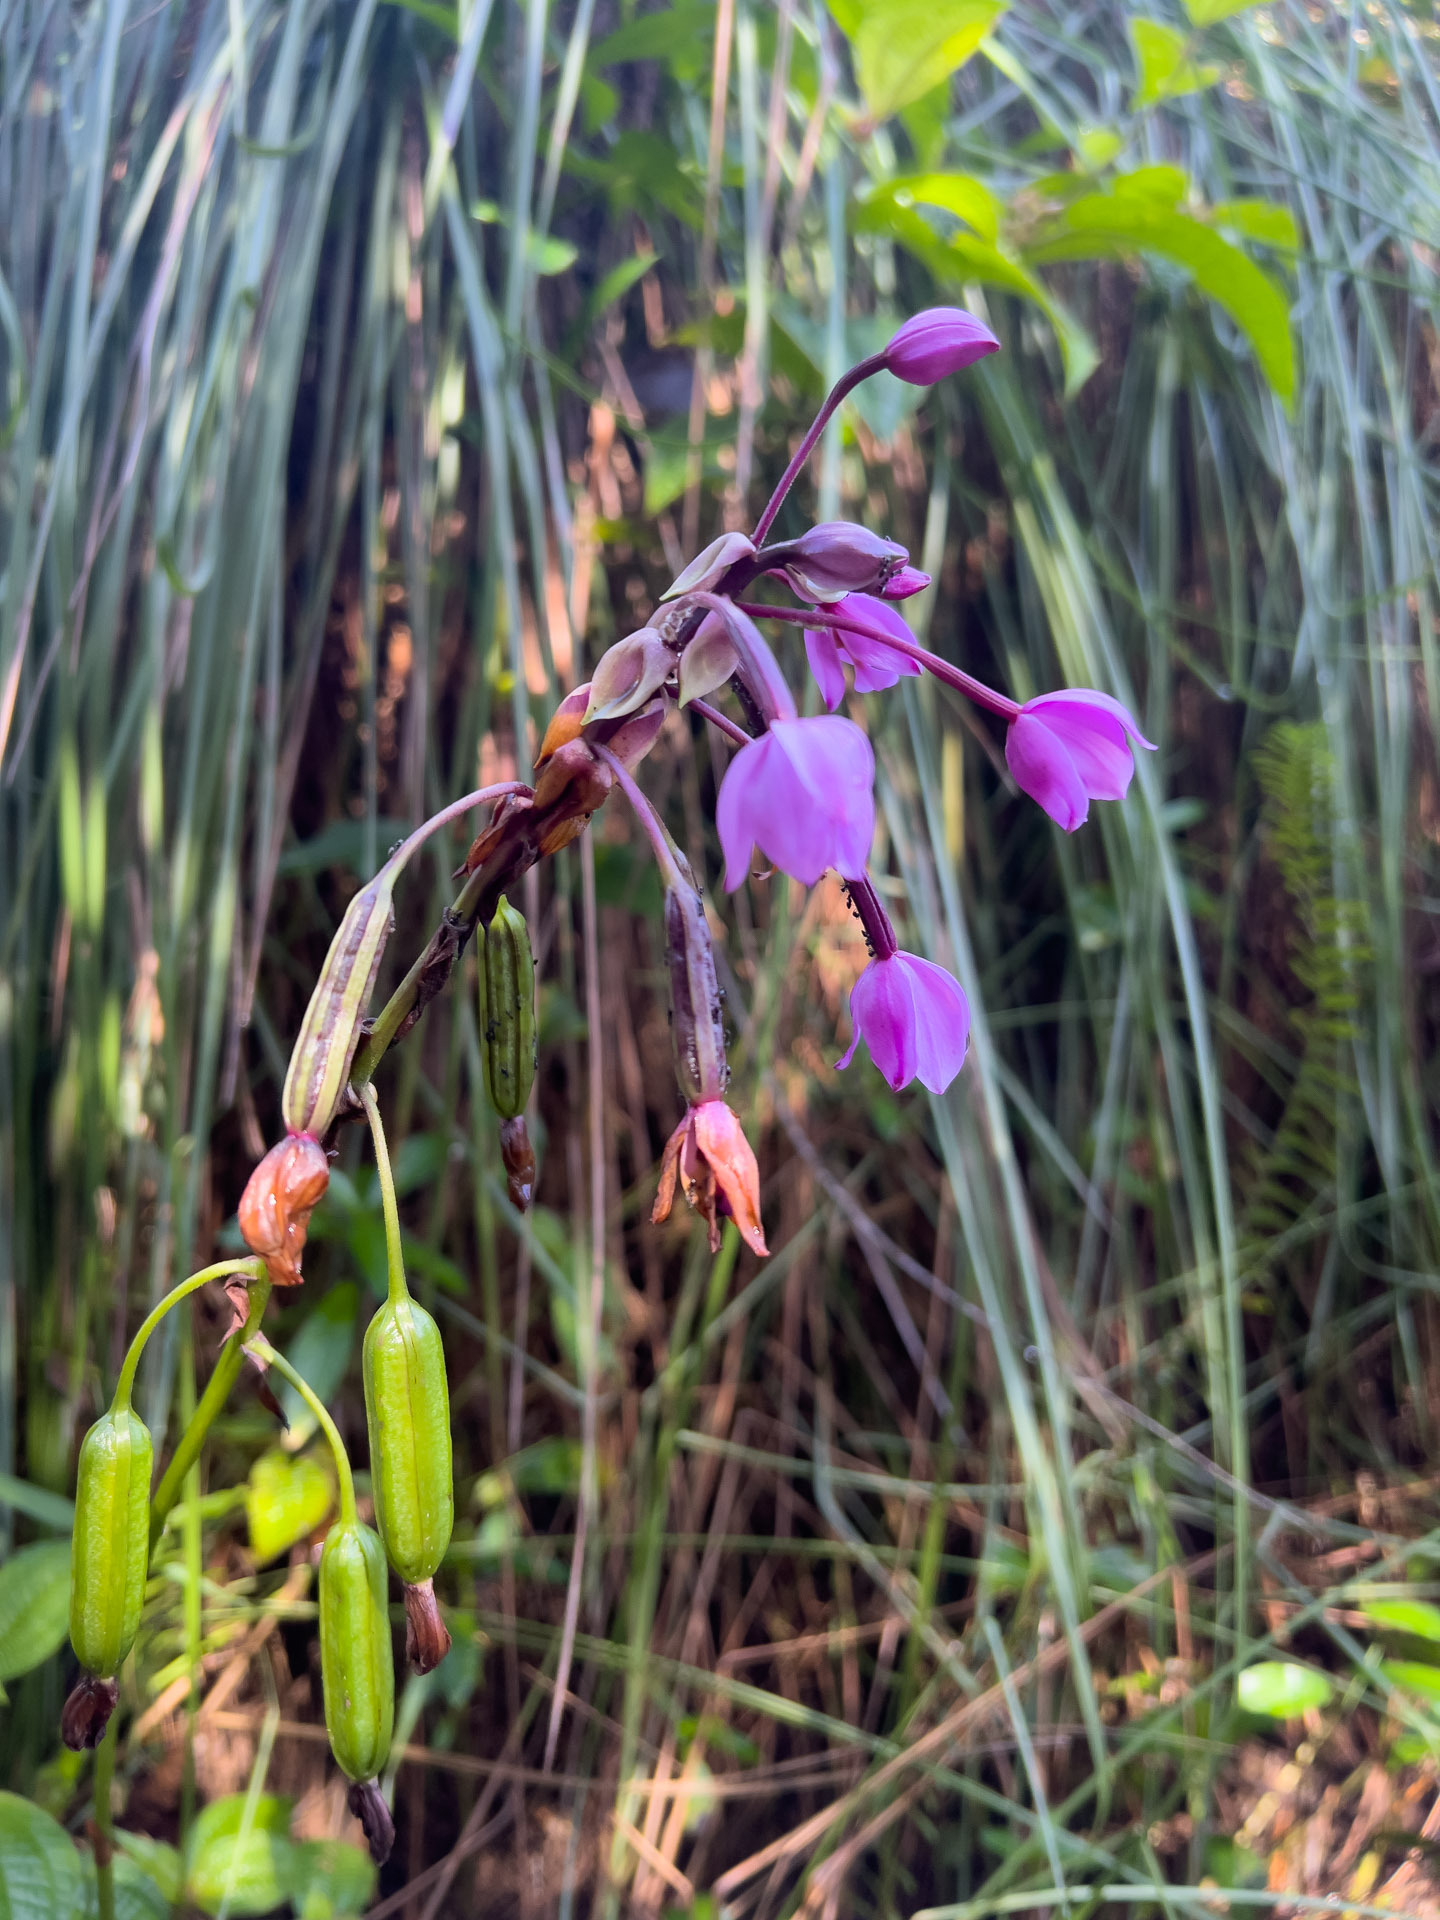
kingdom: Plantae
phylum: Tracheophyta
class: Liliopsida
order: Asparagales
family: Orchidaceae
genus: Spathoglottis
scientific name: Spathoglottis plicata
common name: Philippine ground orchid
